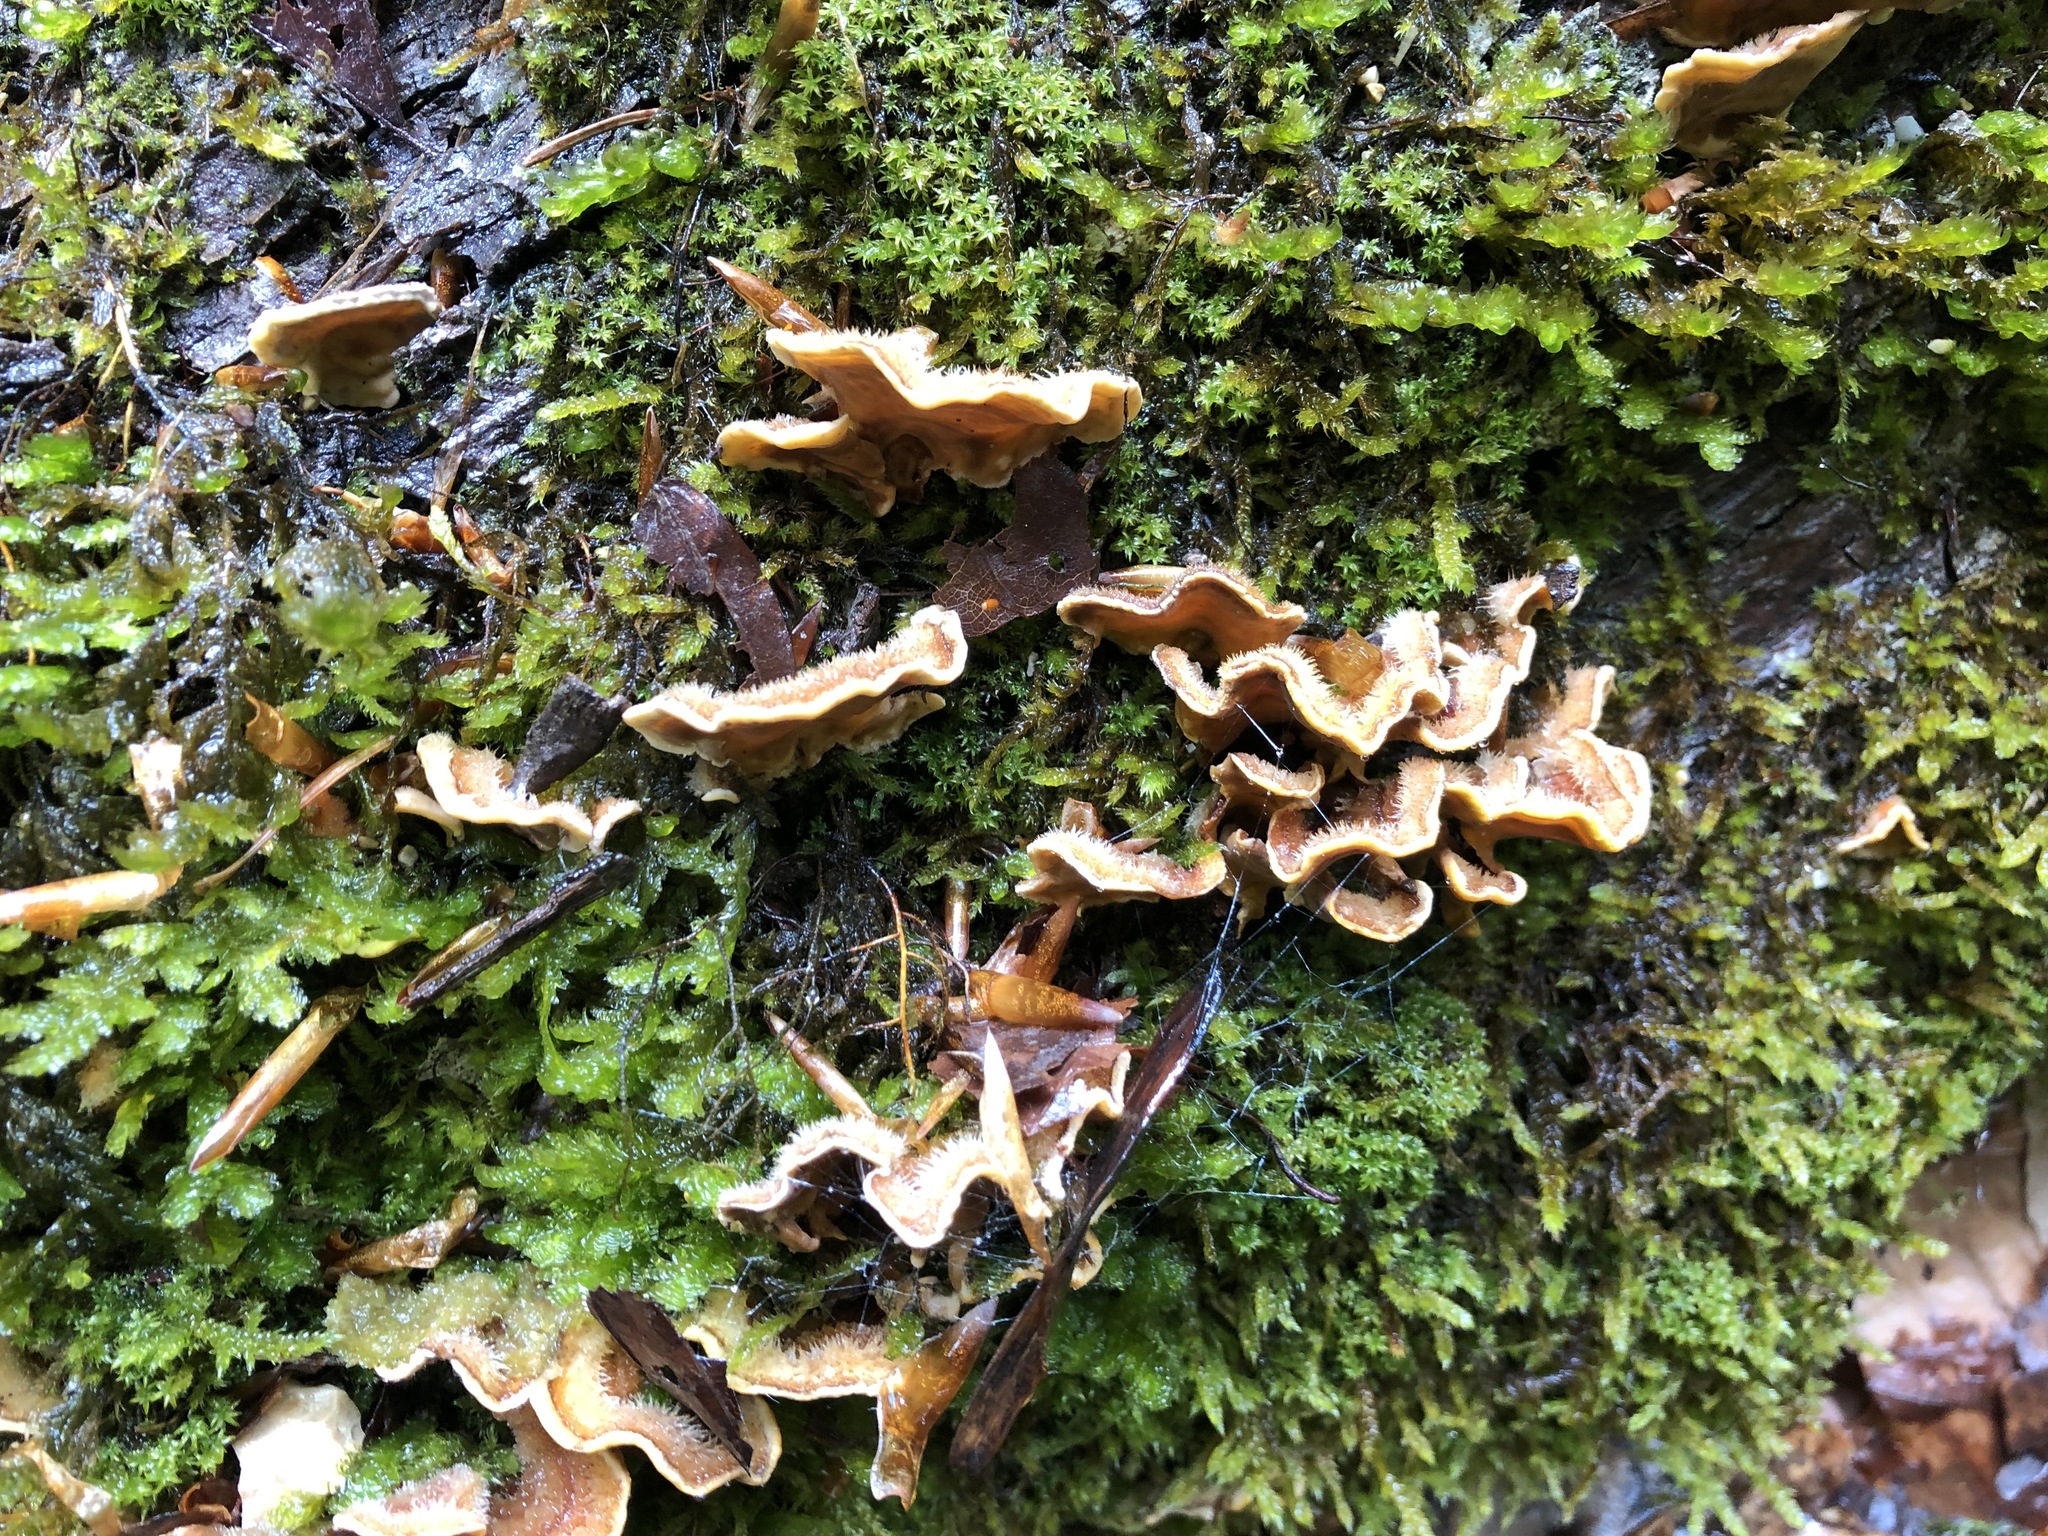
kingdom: Fungi
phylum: Basidiomycota
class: Agaricomycetes
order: Russulales
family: Stereaceae
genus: Stereum
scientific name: Stereum hirsutum
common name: Hairy curtain crust
